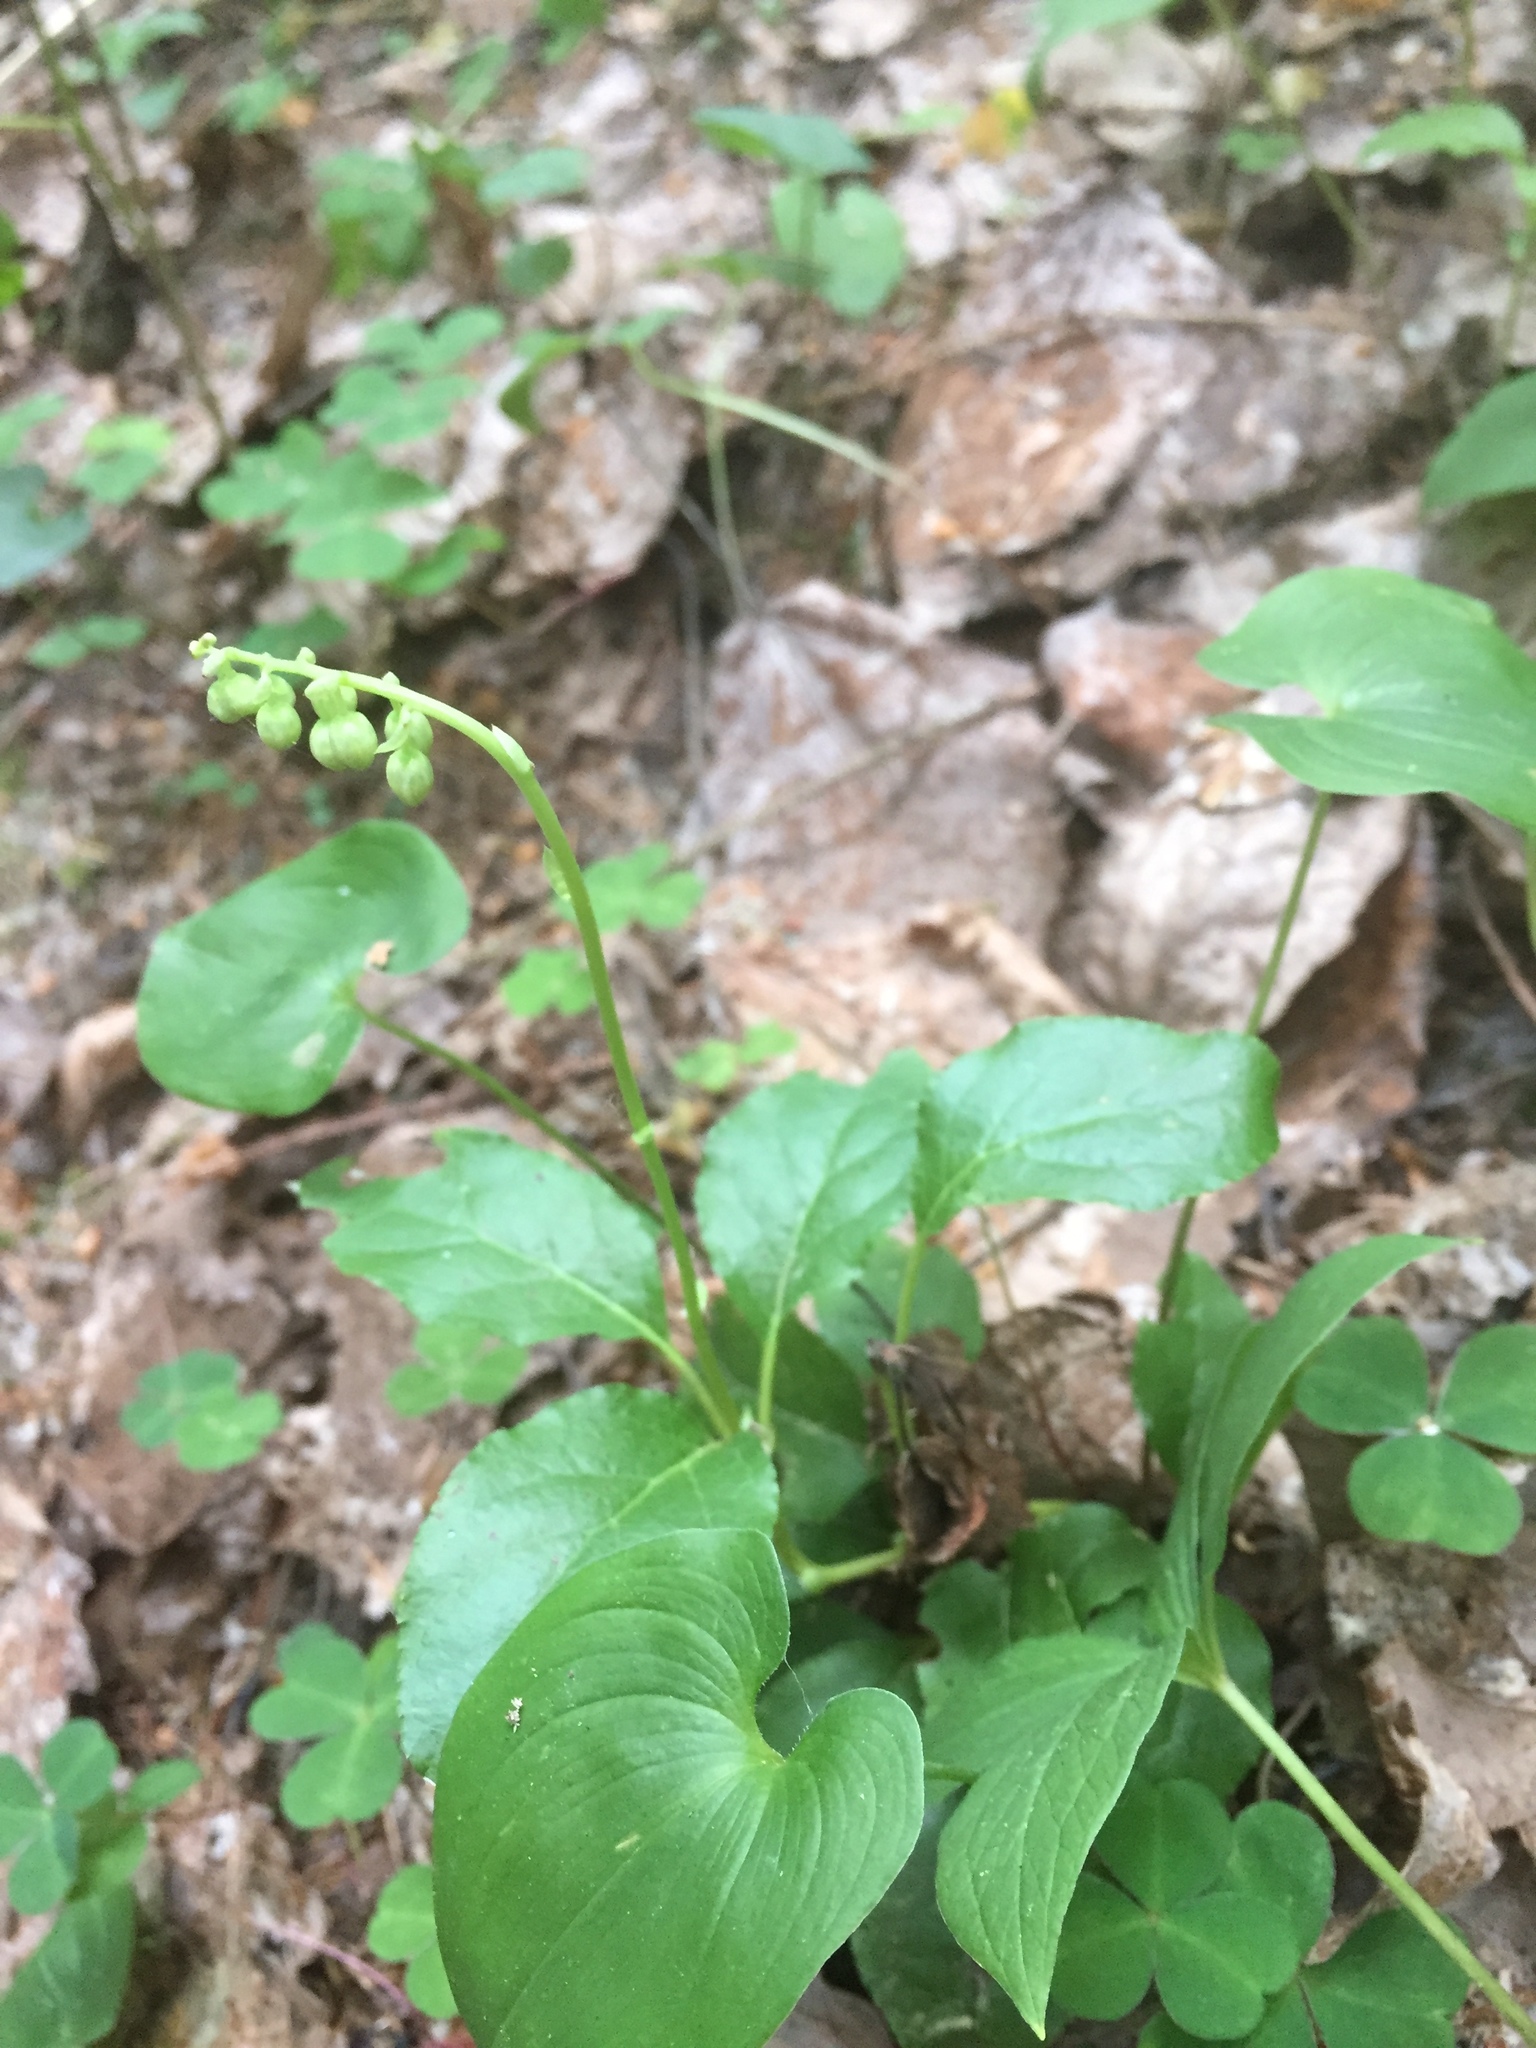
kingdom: Plantae
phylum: Tracheophyta
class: Magnoliopsida
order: Ericales
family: Ericaceae
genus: Orthilia
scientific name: Orthilia secunda
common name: One-sided orthilia
